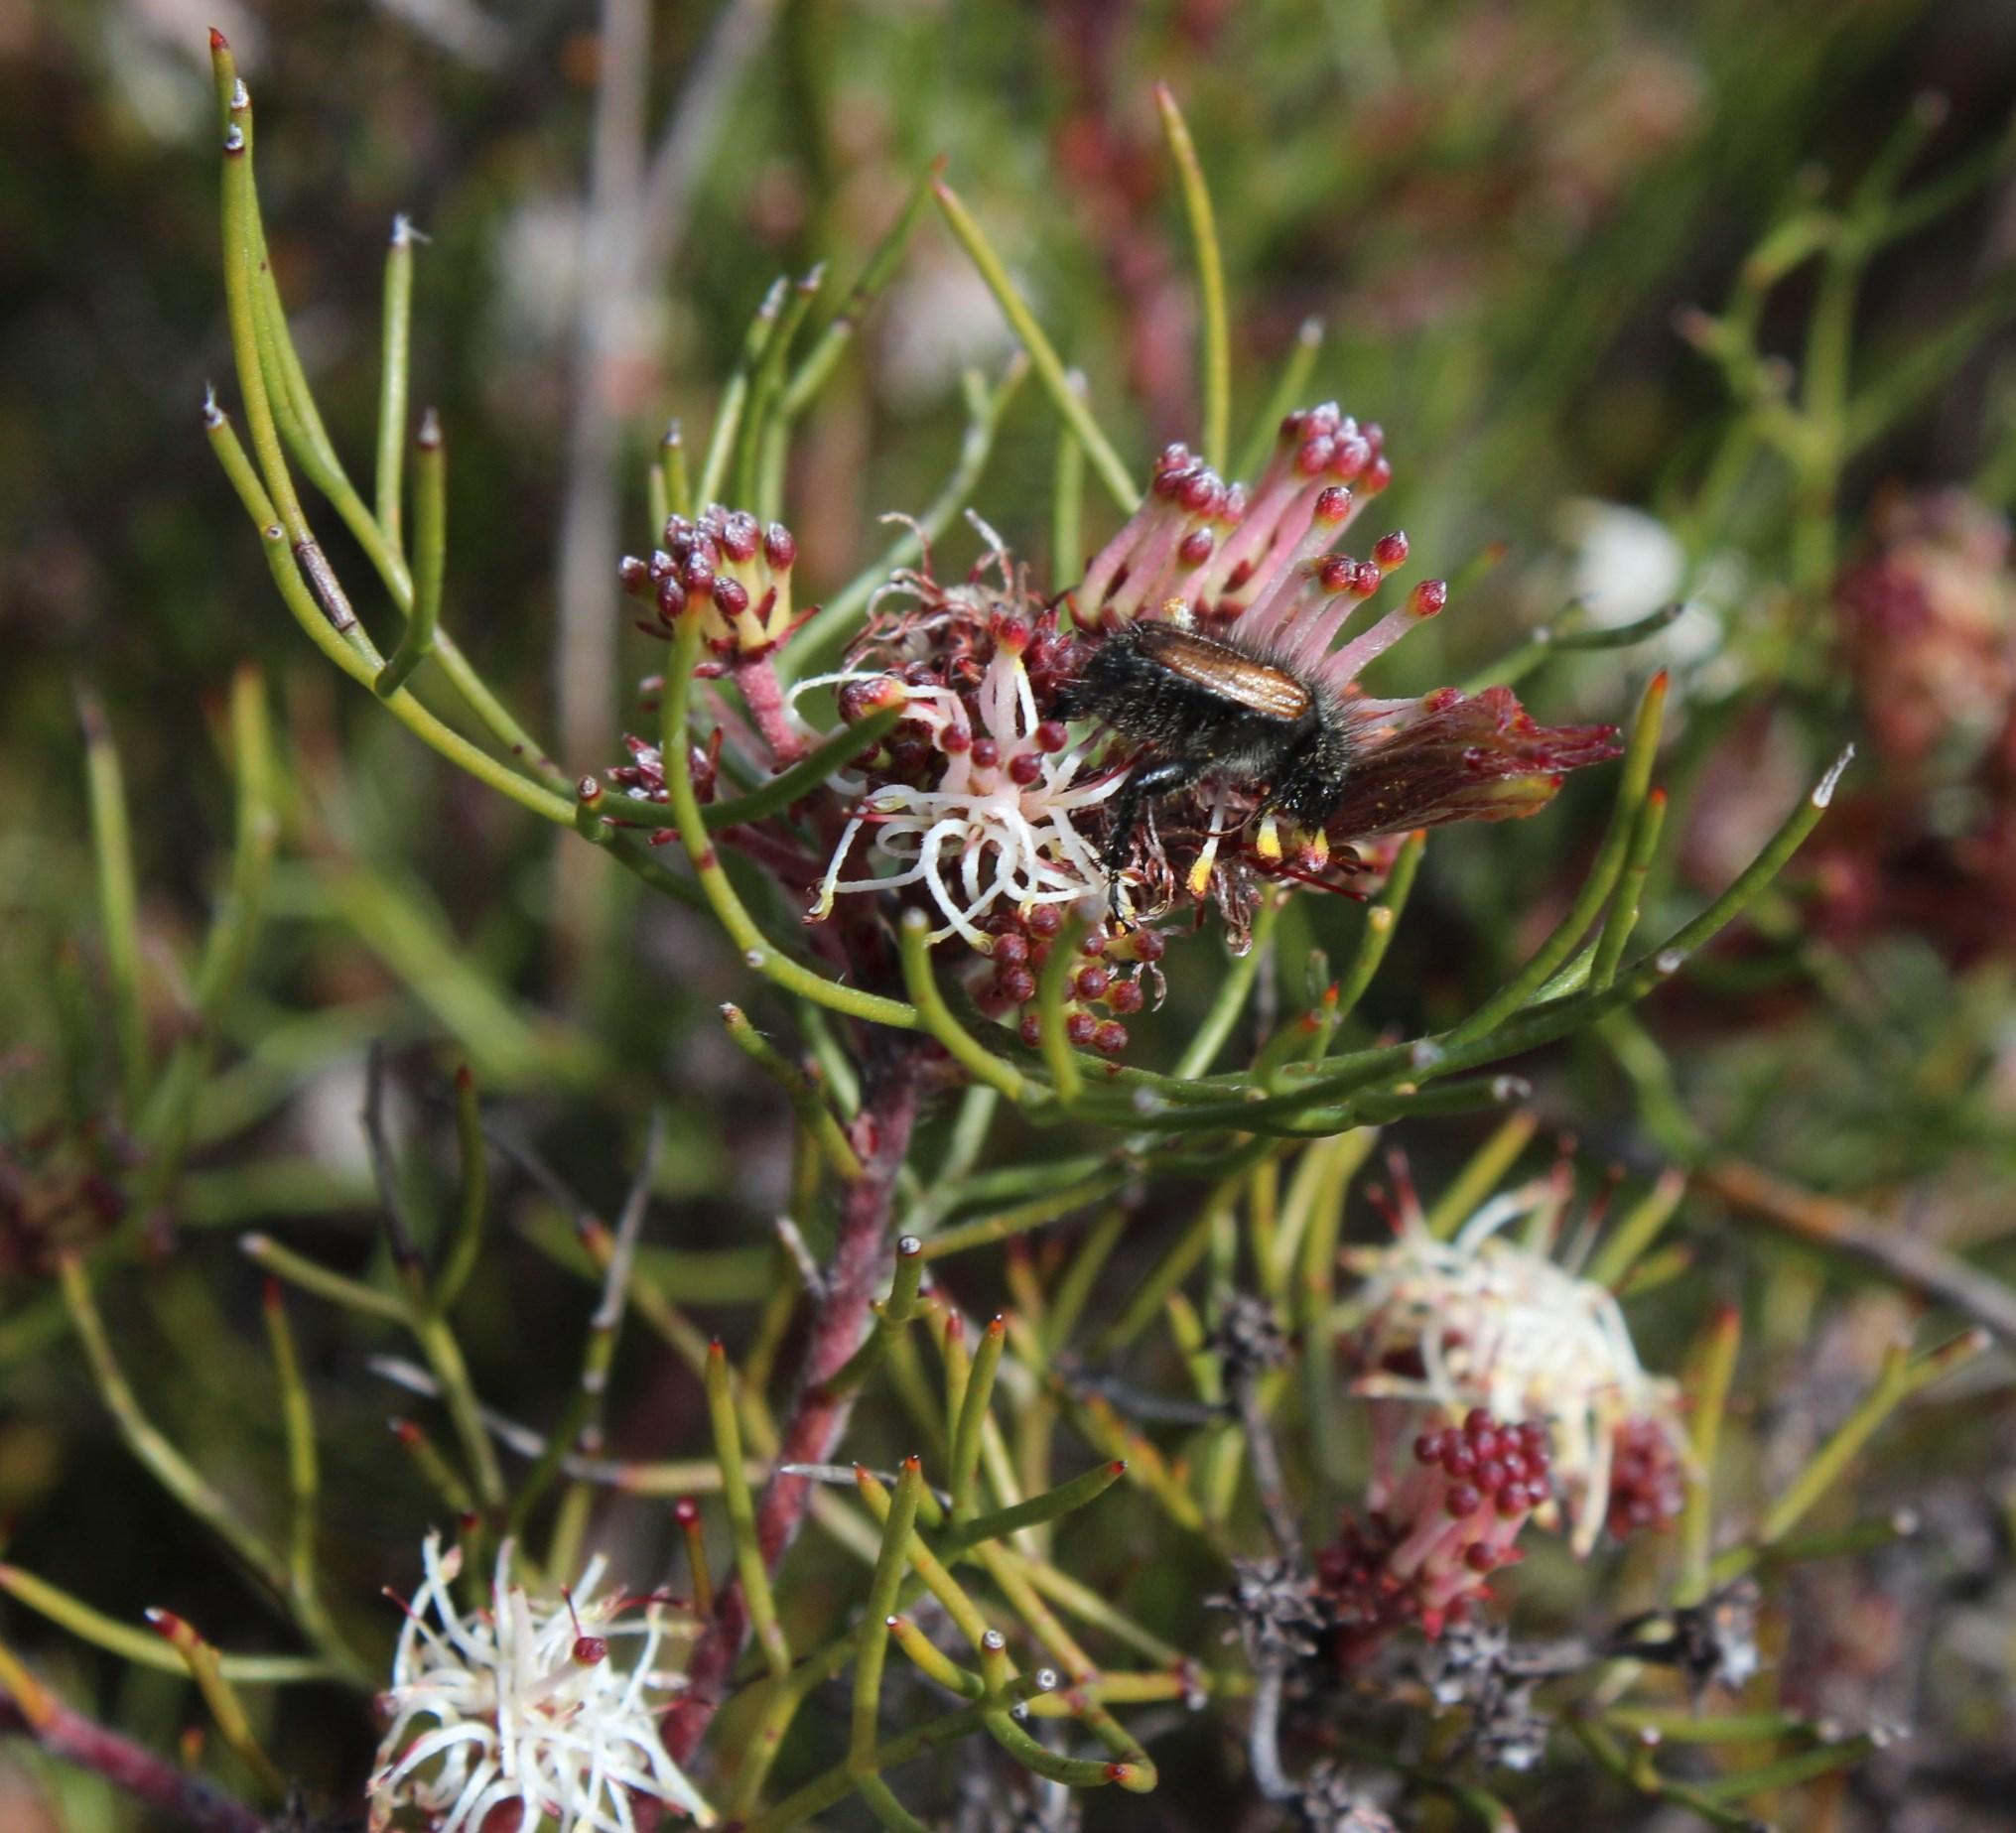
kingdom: Plantae
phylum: Tracheophyta
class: Magnoliopsida
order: Proteales
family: Proteaceae
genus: Serruria
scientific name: Serruria inconspicua
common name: Cryptic spiderhead
